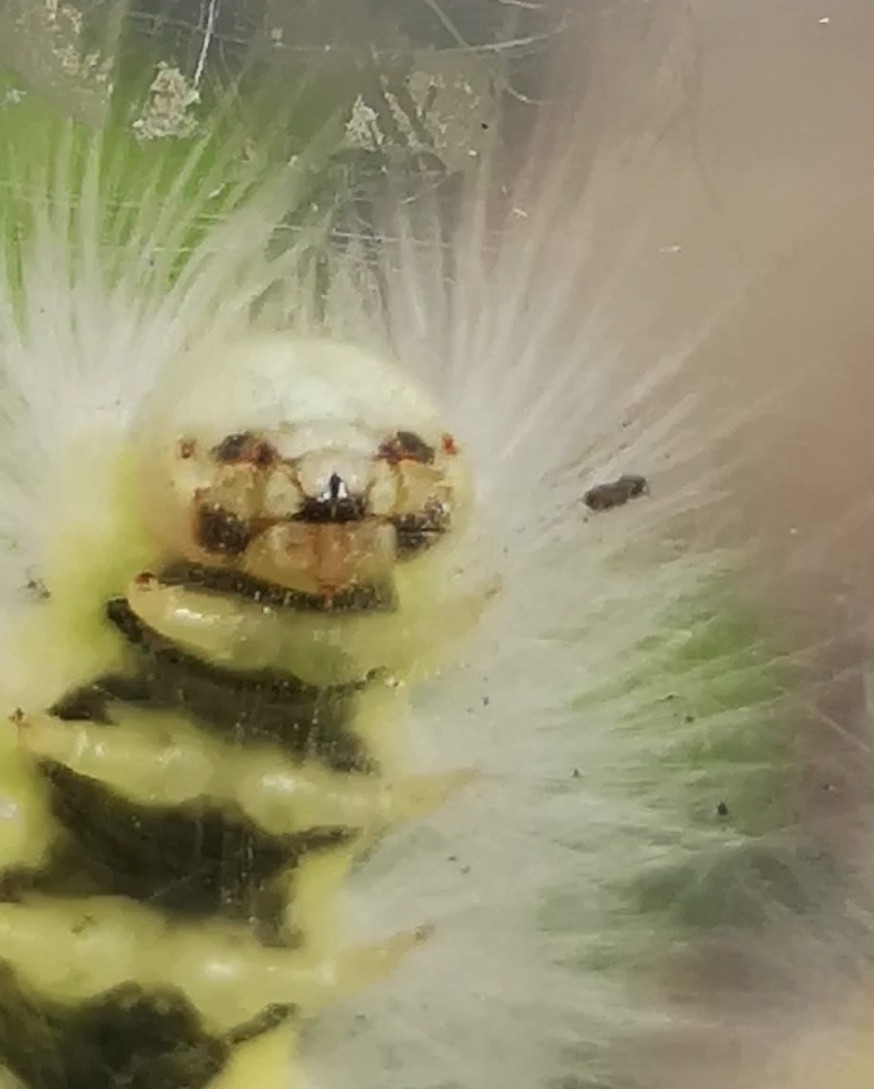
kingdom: Animalia
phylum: Arthropoda
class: Insecta
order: Lepidoptera
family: Erebidae
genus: Calliteara
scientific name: Calliteara pudibunda
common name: Pale tussock
